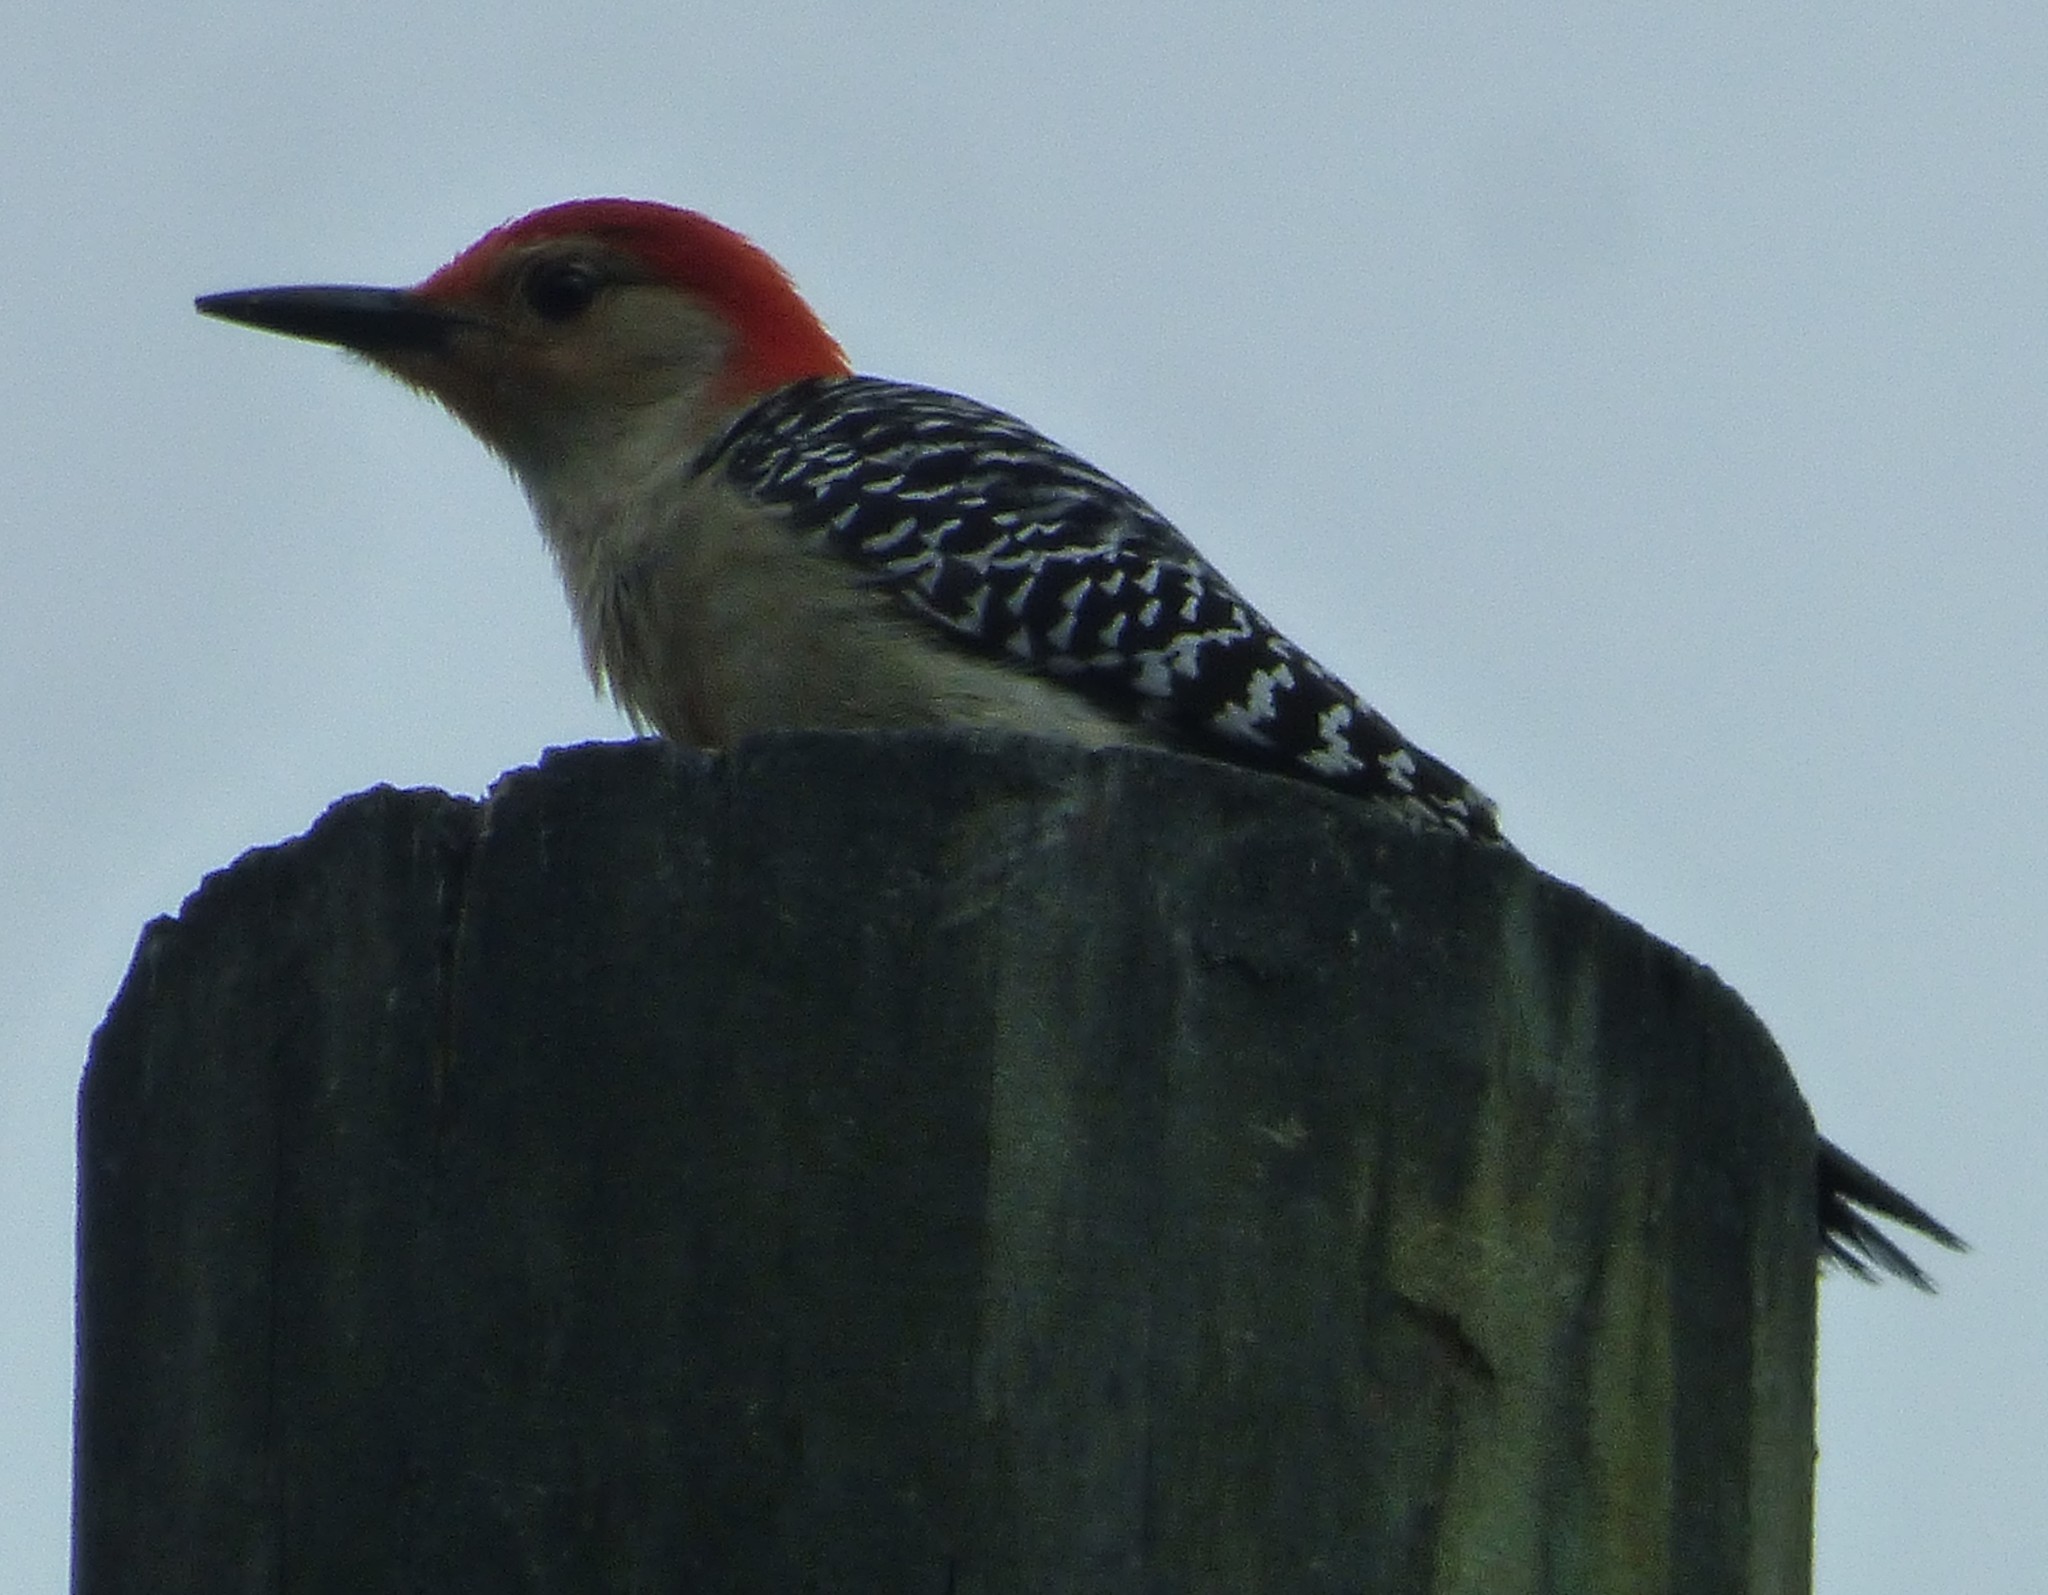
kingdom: Animalia
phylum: Chordata
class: Aves
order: Piciformes
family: Picidae
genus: Melanerpes
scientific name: Melanerpes carolinus
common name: Red-bellied woodpecker
